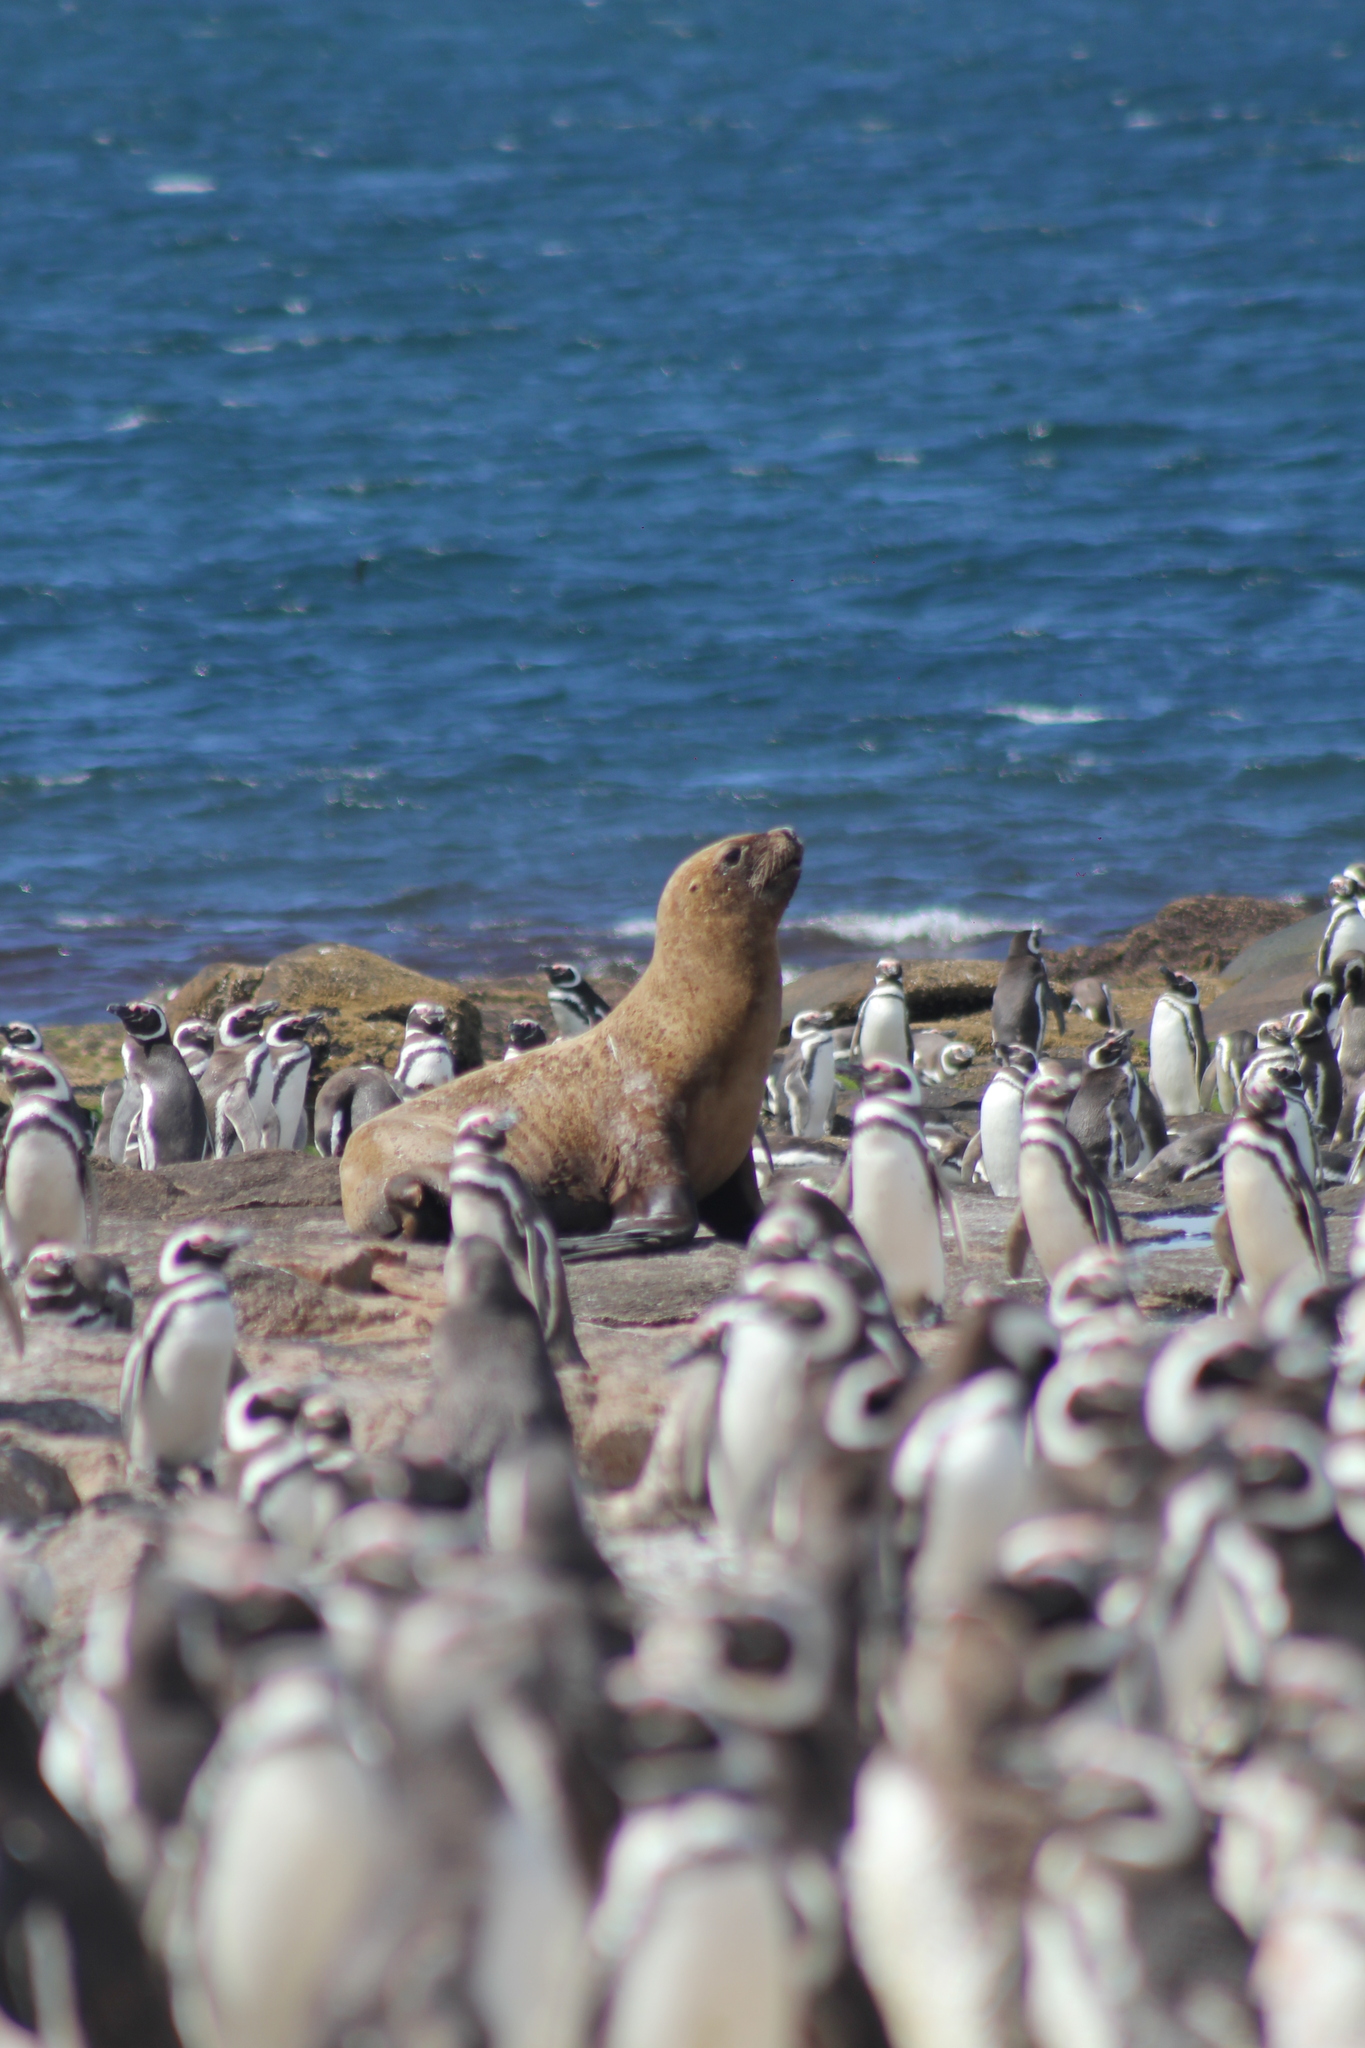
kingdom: Animalia
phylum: Chordata
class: Mammalia
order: Carnivora
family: Otariidae
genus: Otaria
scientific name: Otaria byronia
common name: South american sea lion
